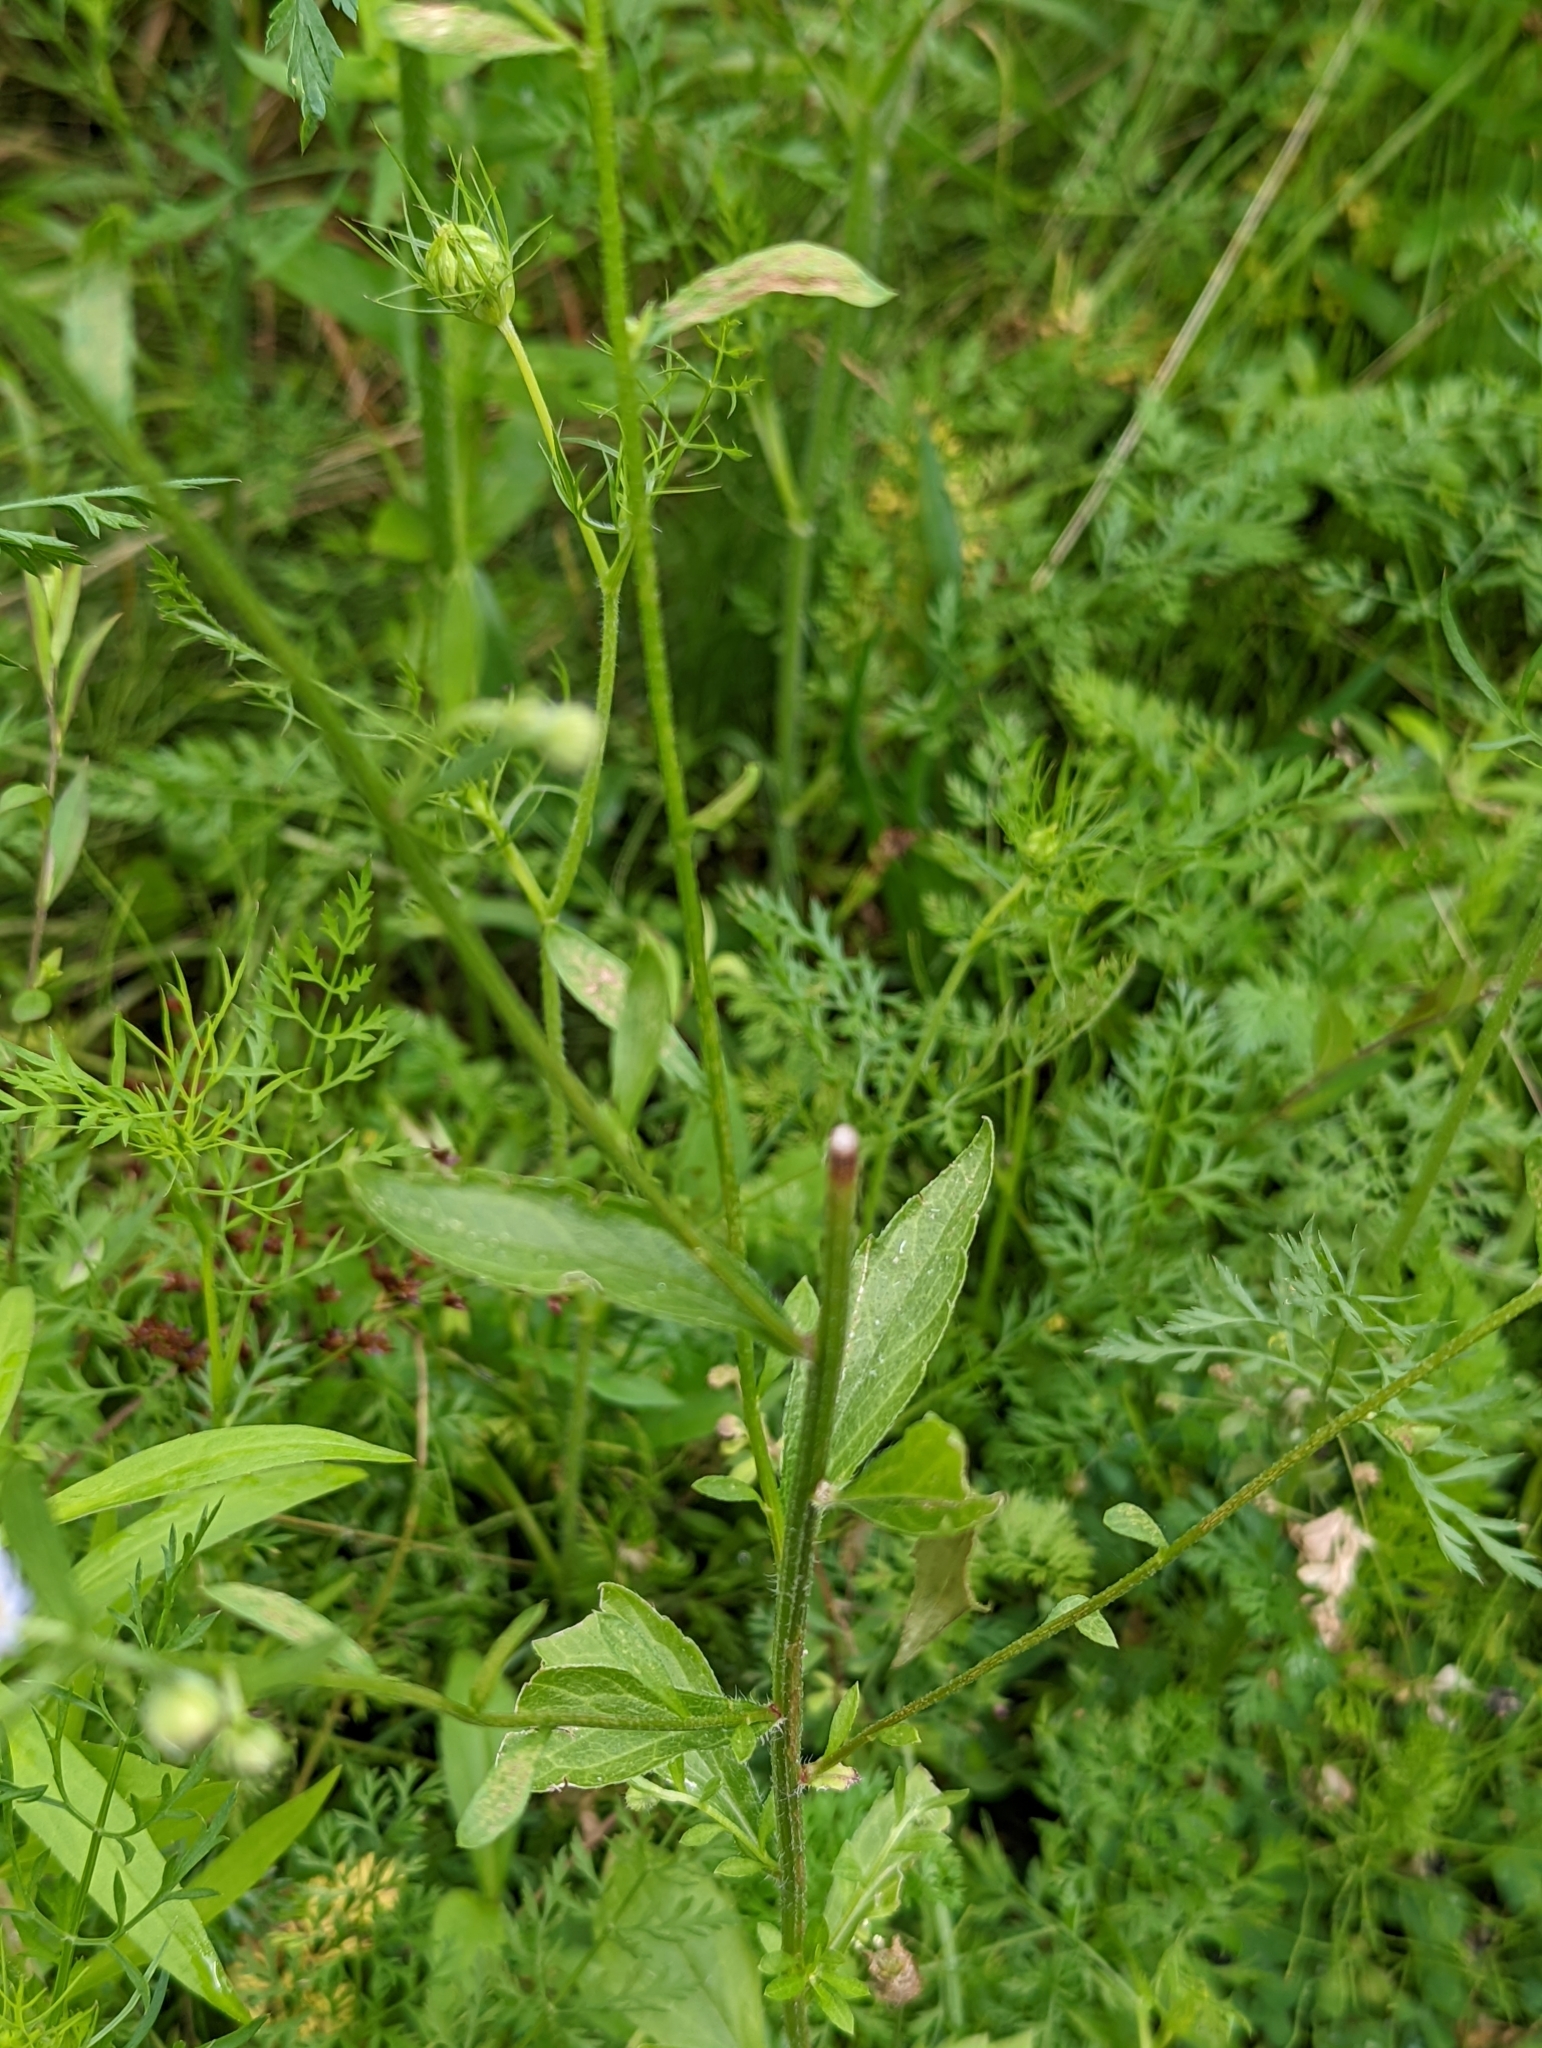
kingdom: Plantae
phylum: Tracheophyta
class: Magnoliopsida
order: Asterales
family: Asteraceae
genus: Erigeron
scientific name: Erigeron strigosus
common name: Common eastern fleabane
